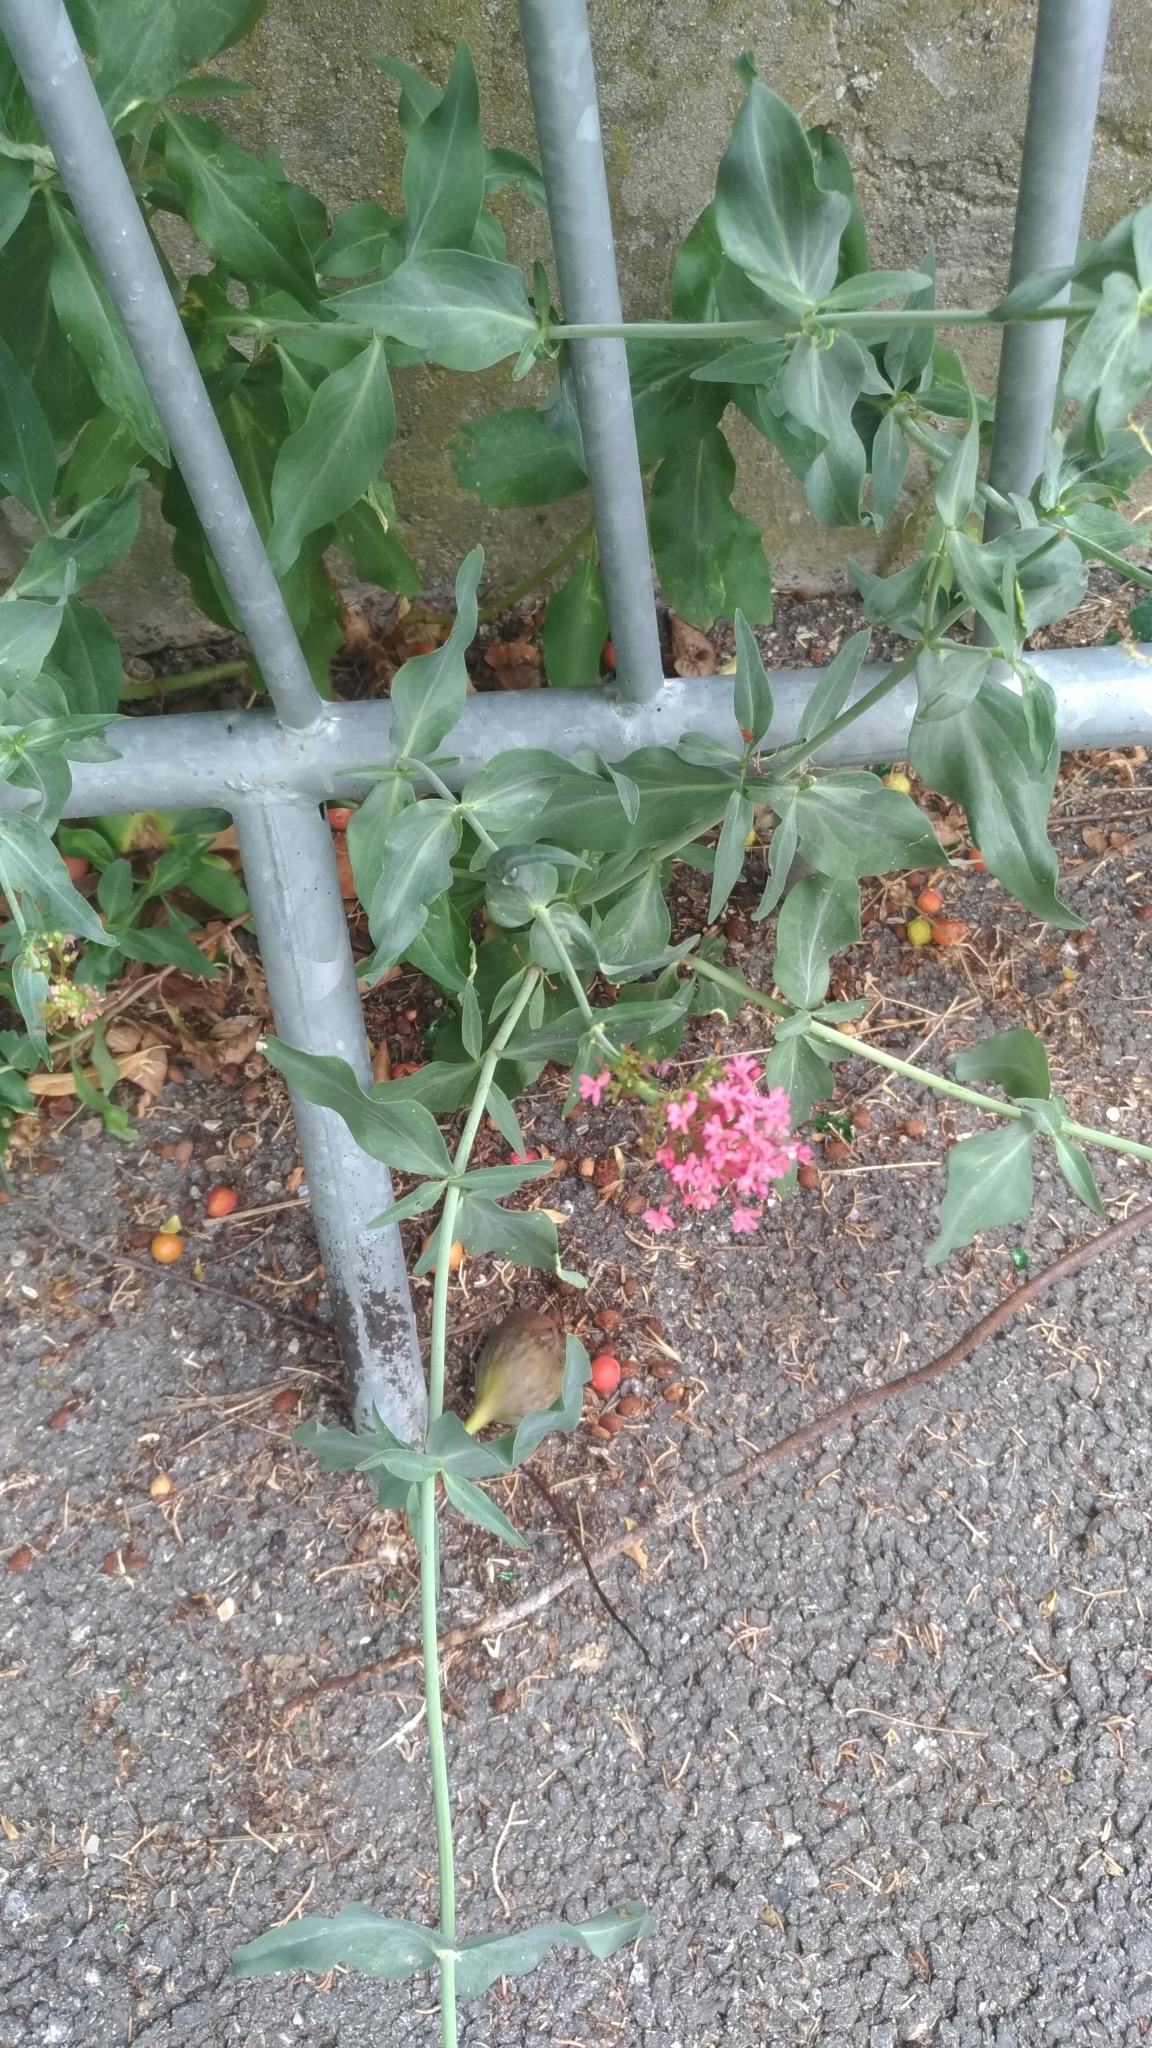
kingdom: Plantae
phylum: Tracheophyta
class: Magnoliopsida
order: Dipsacales
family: Caprifoliaceae
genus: Centranthus
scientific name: Centranthus ruber
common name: Red valerian
